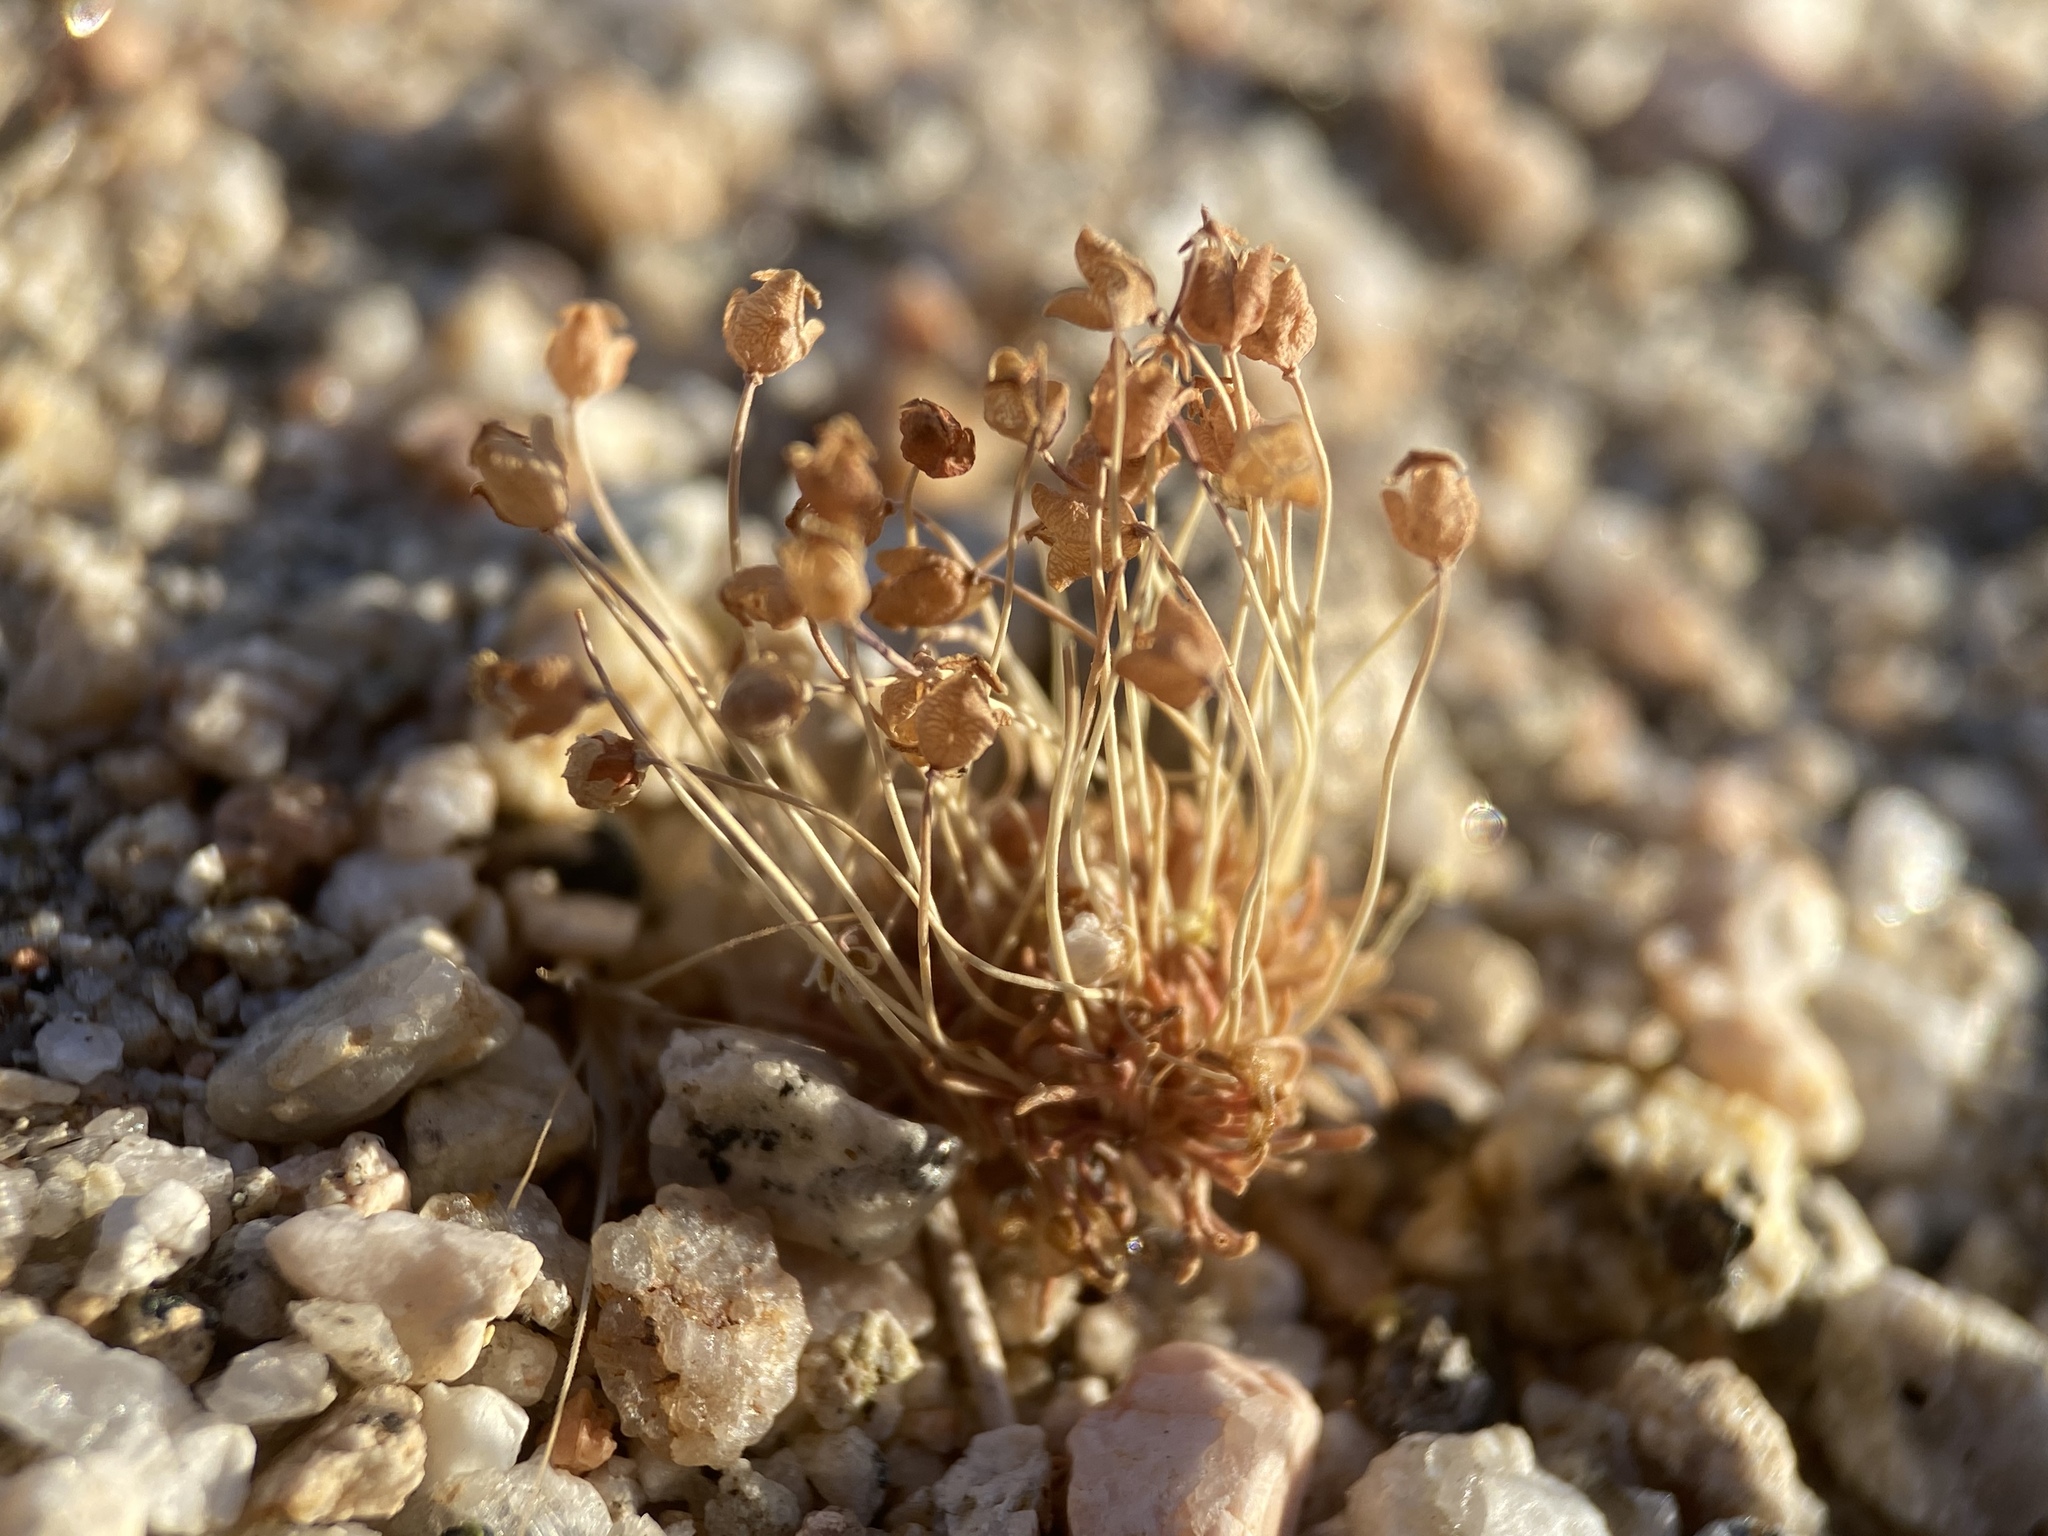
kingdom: Plantae
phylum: Tracheophyta
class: Magnoliopsida
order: Ranunculales
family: Papaveraceae
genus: Canbya
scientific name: Canbya candida
